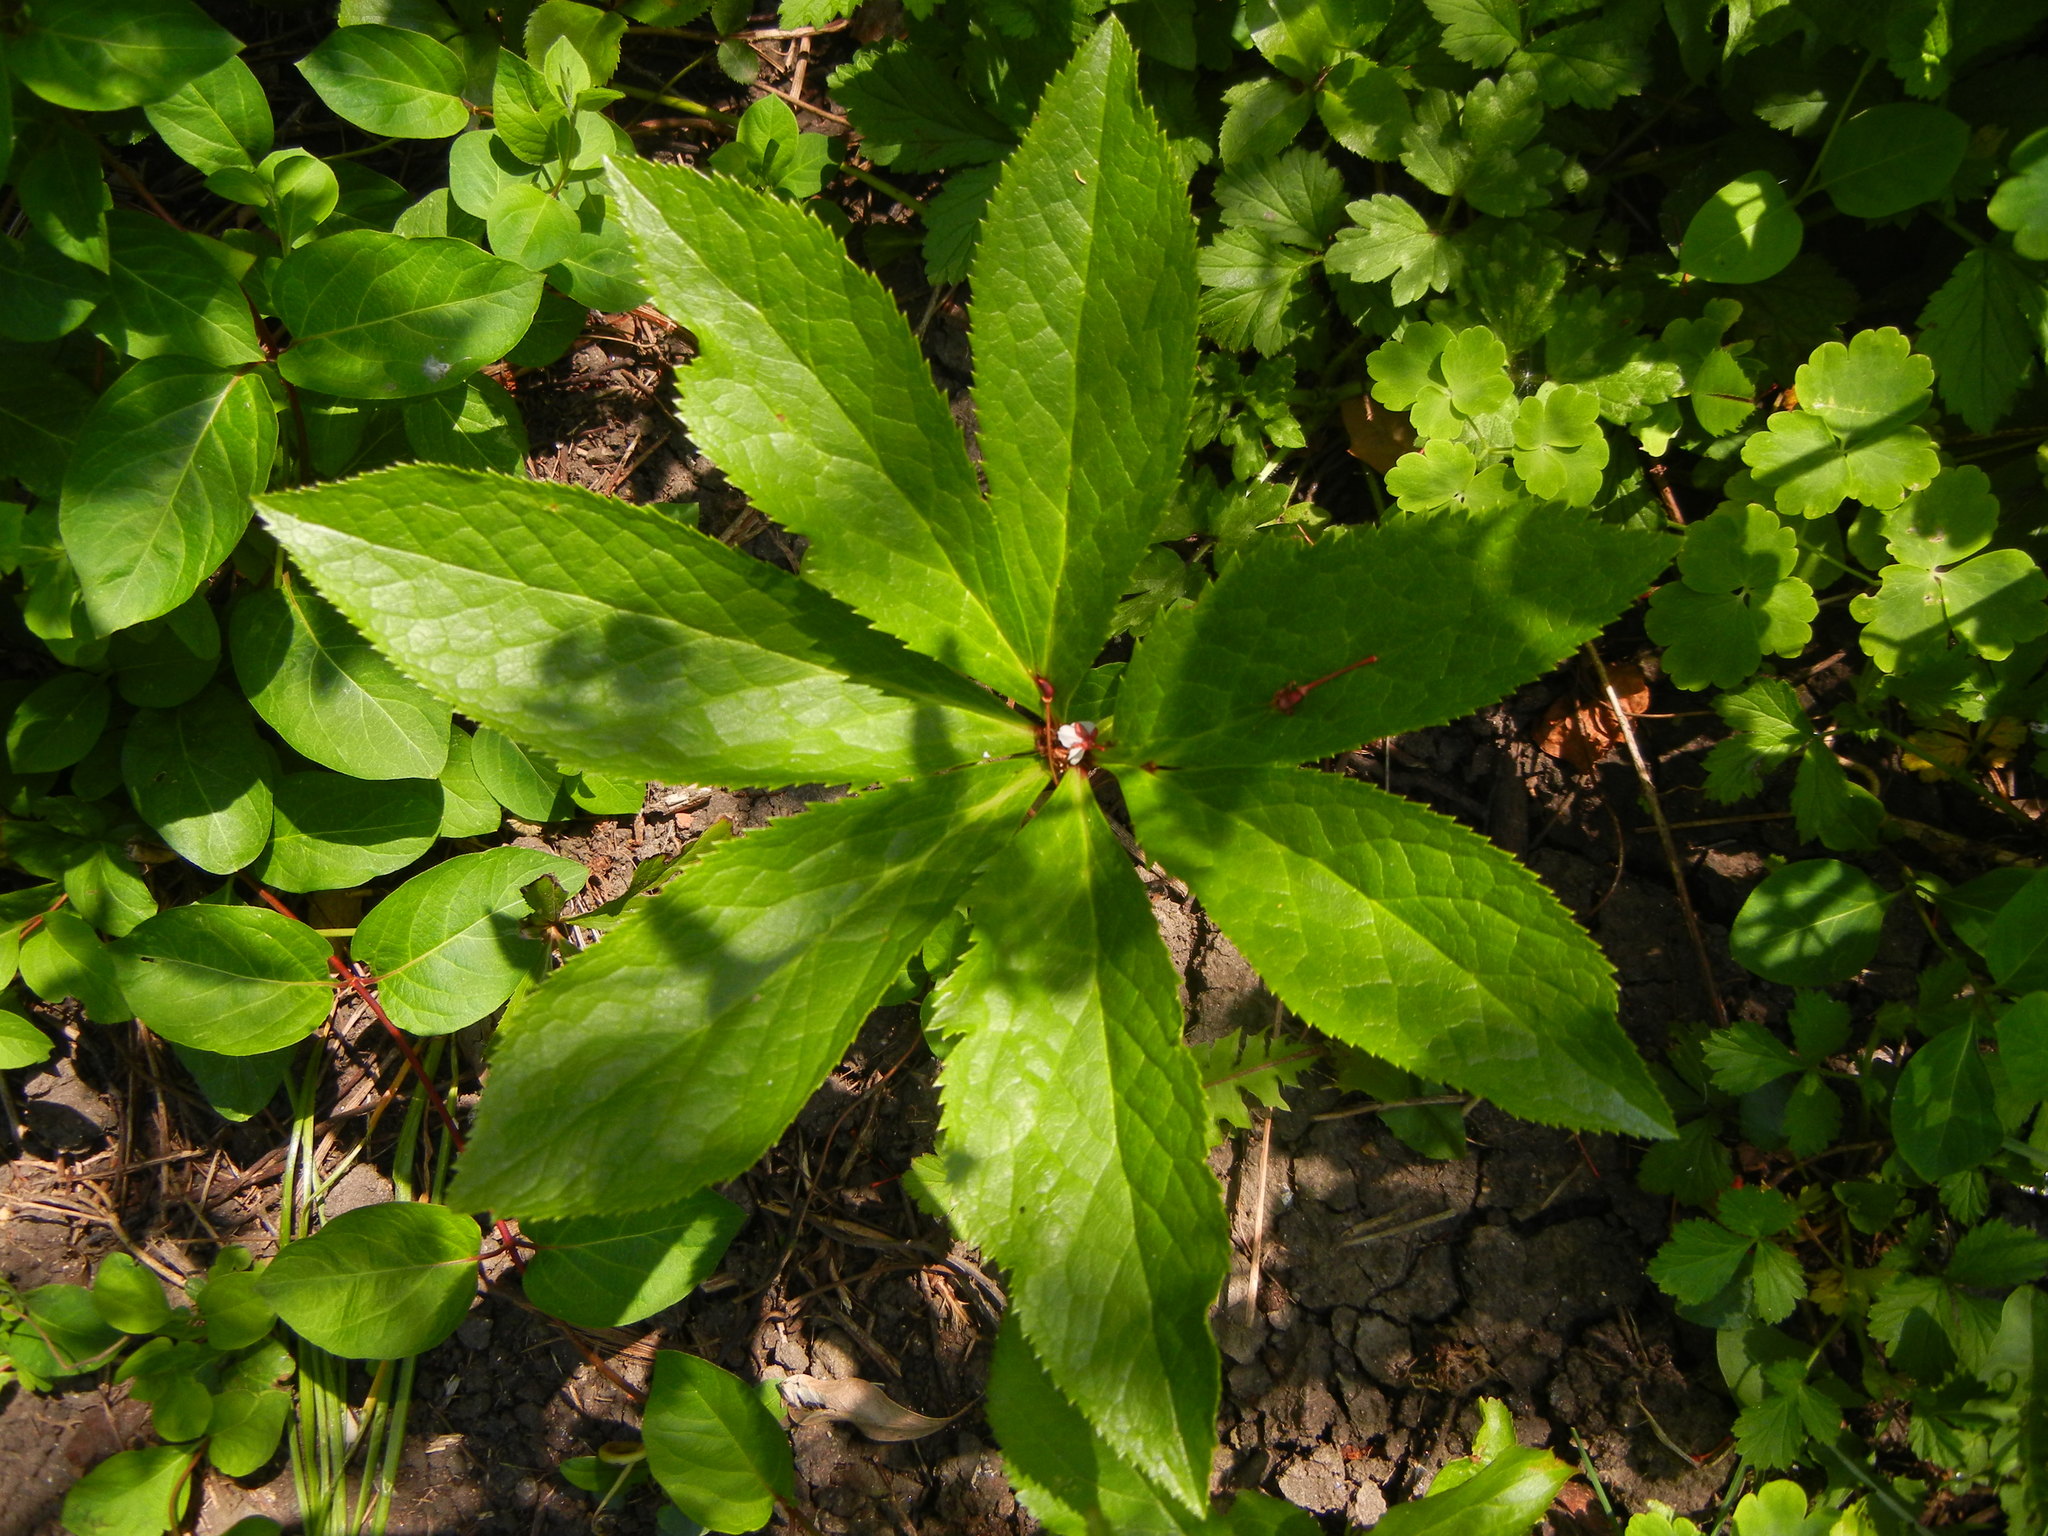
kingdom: Plantae
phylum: Tracheophyta
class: Magnoliopsida
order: Ranunculales
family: Ranunculaceae
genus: Helleborus
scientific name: Helleborus orientalis
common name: Lenten-rose
